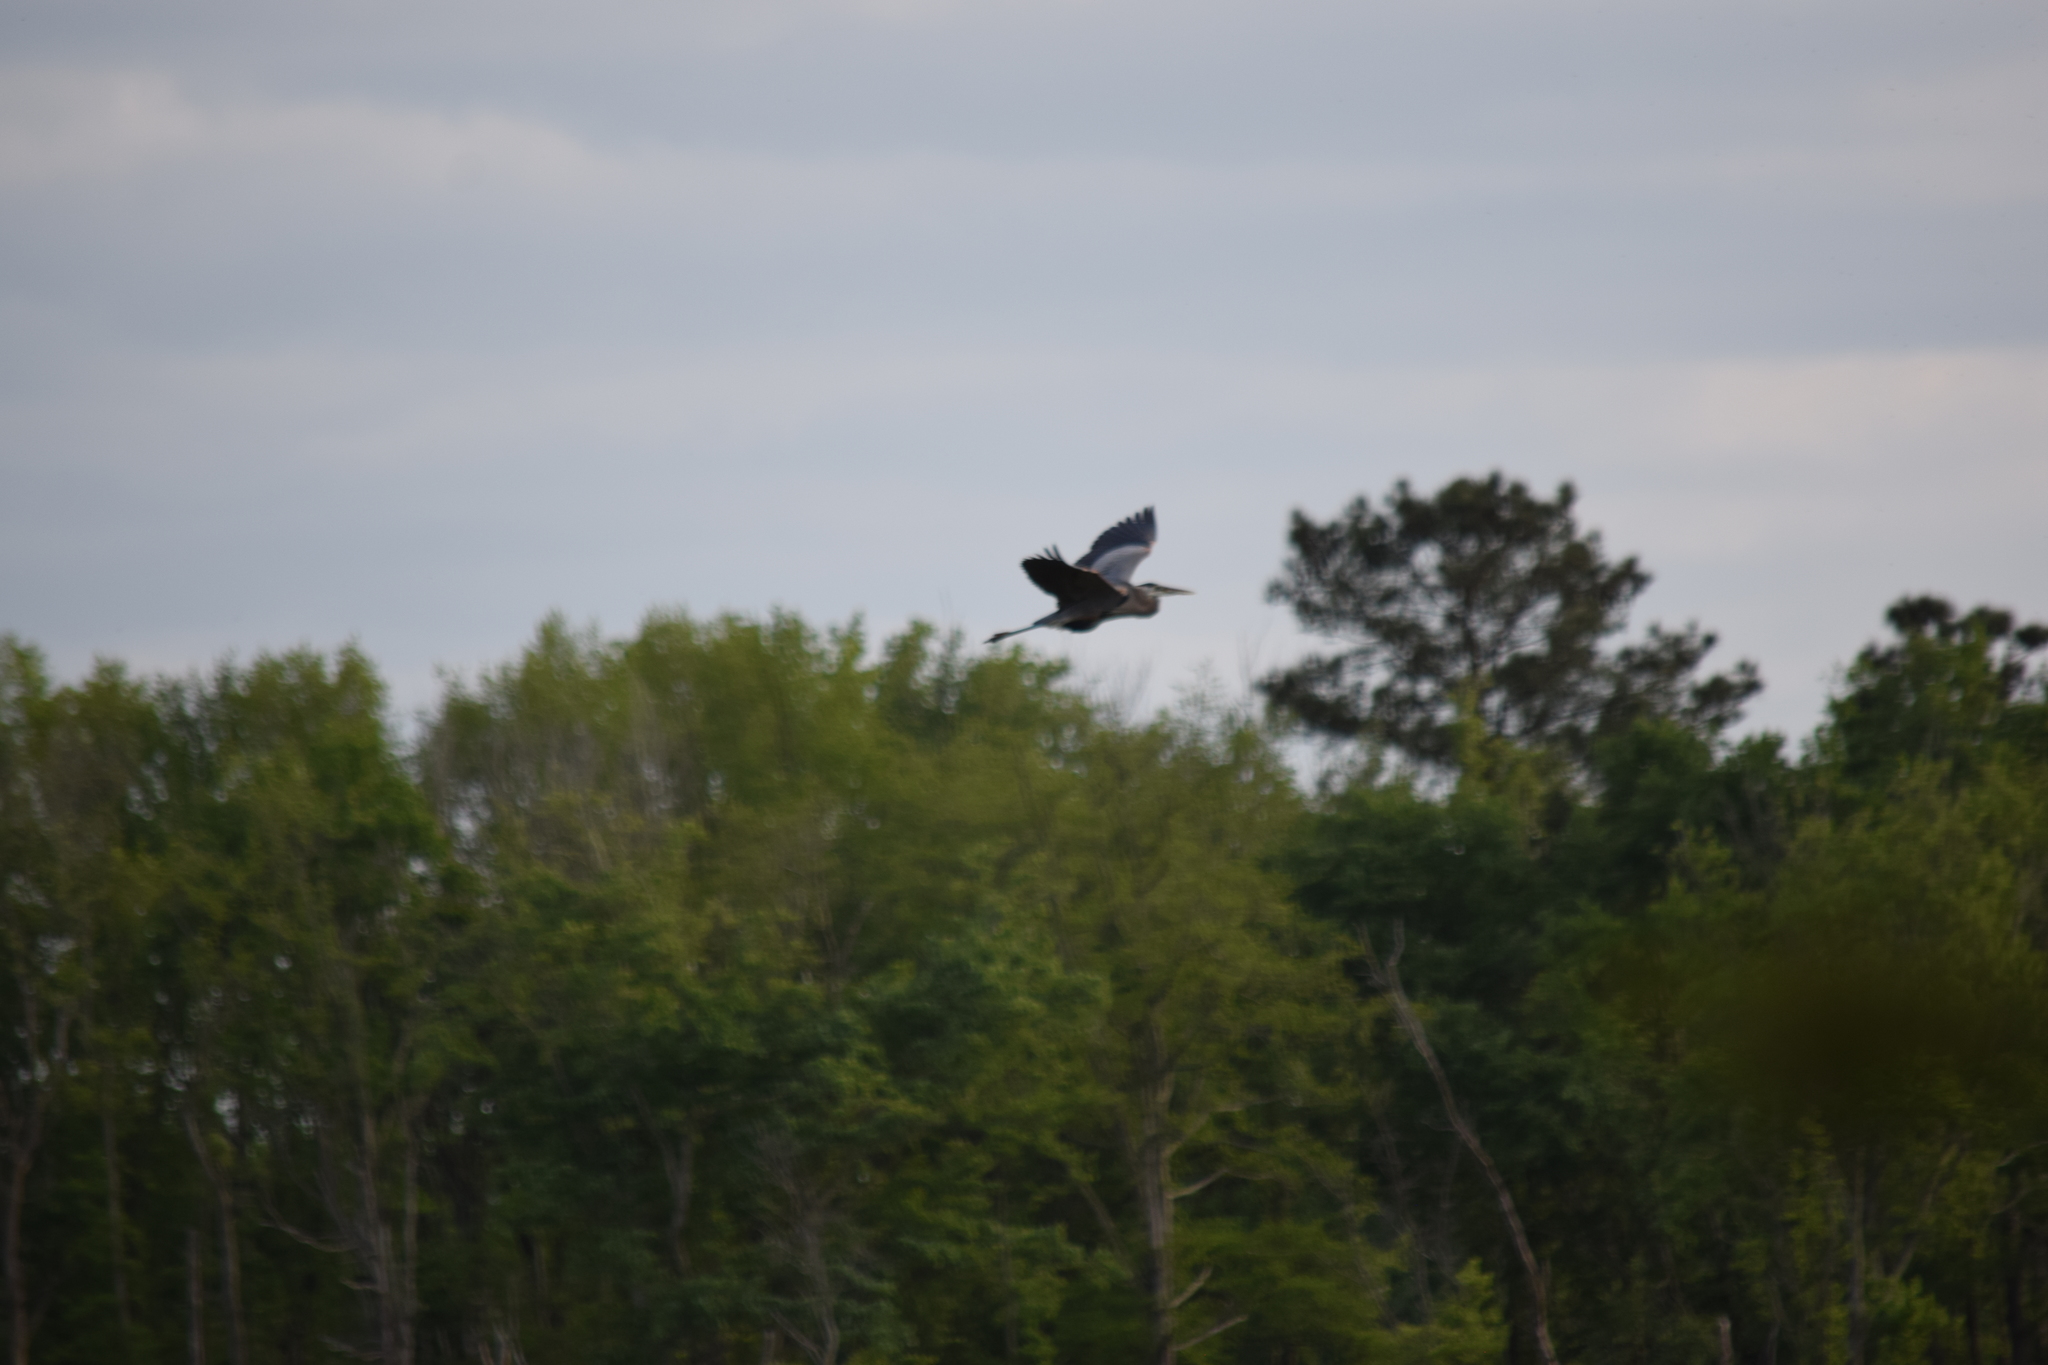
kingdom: Animalia
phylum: Chordata
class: Aves
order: Pelecaniformes
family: Ardeidae
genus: Ardea
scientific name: Ardea herodias
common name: Great blue heron
